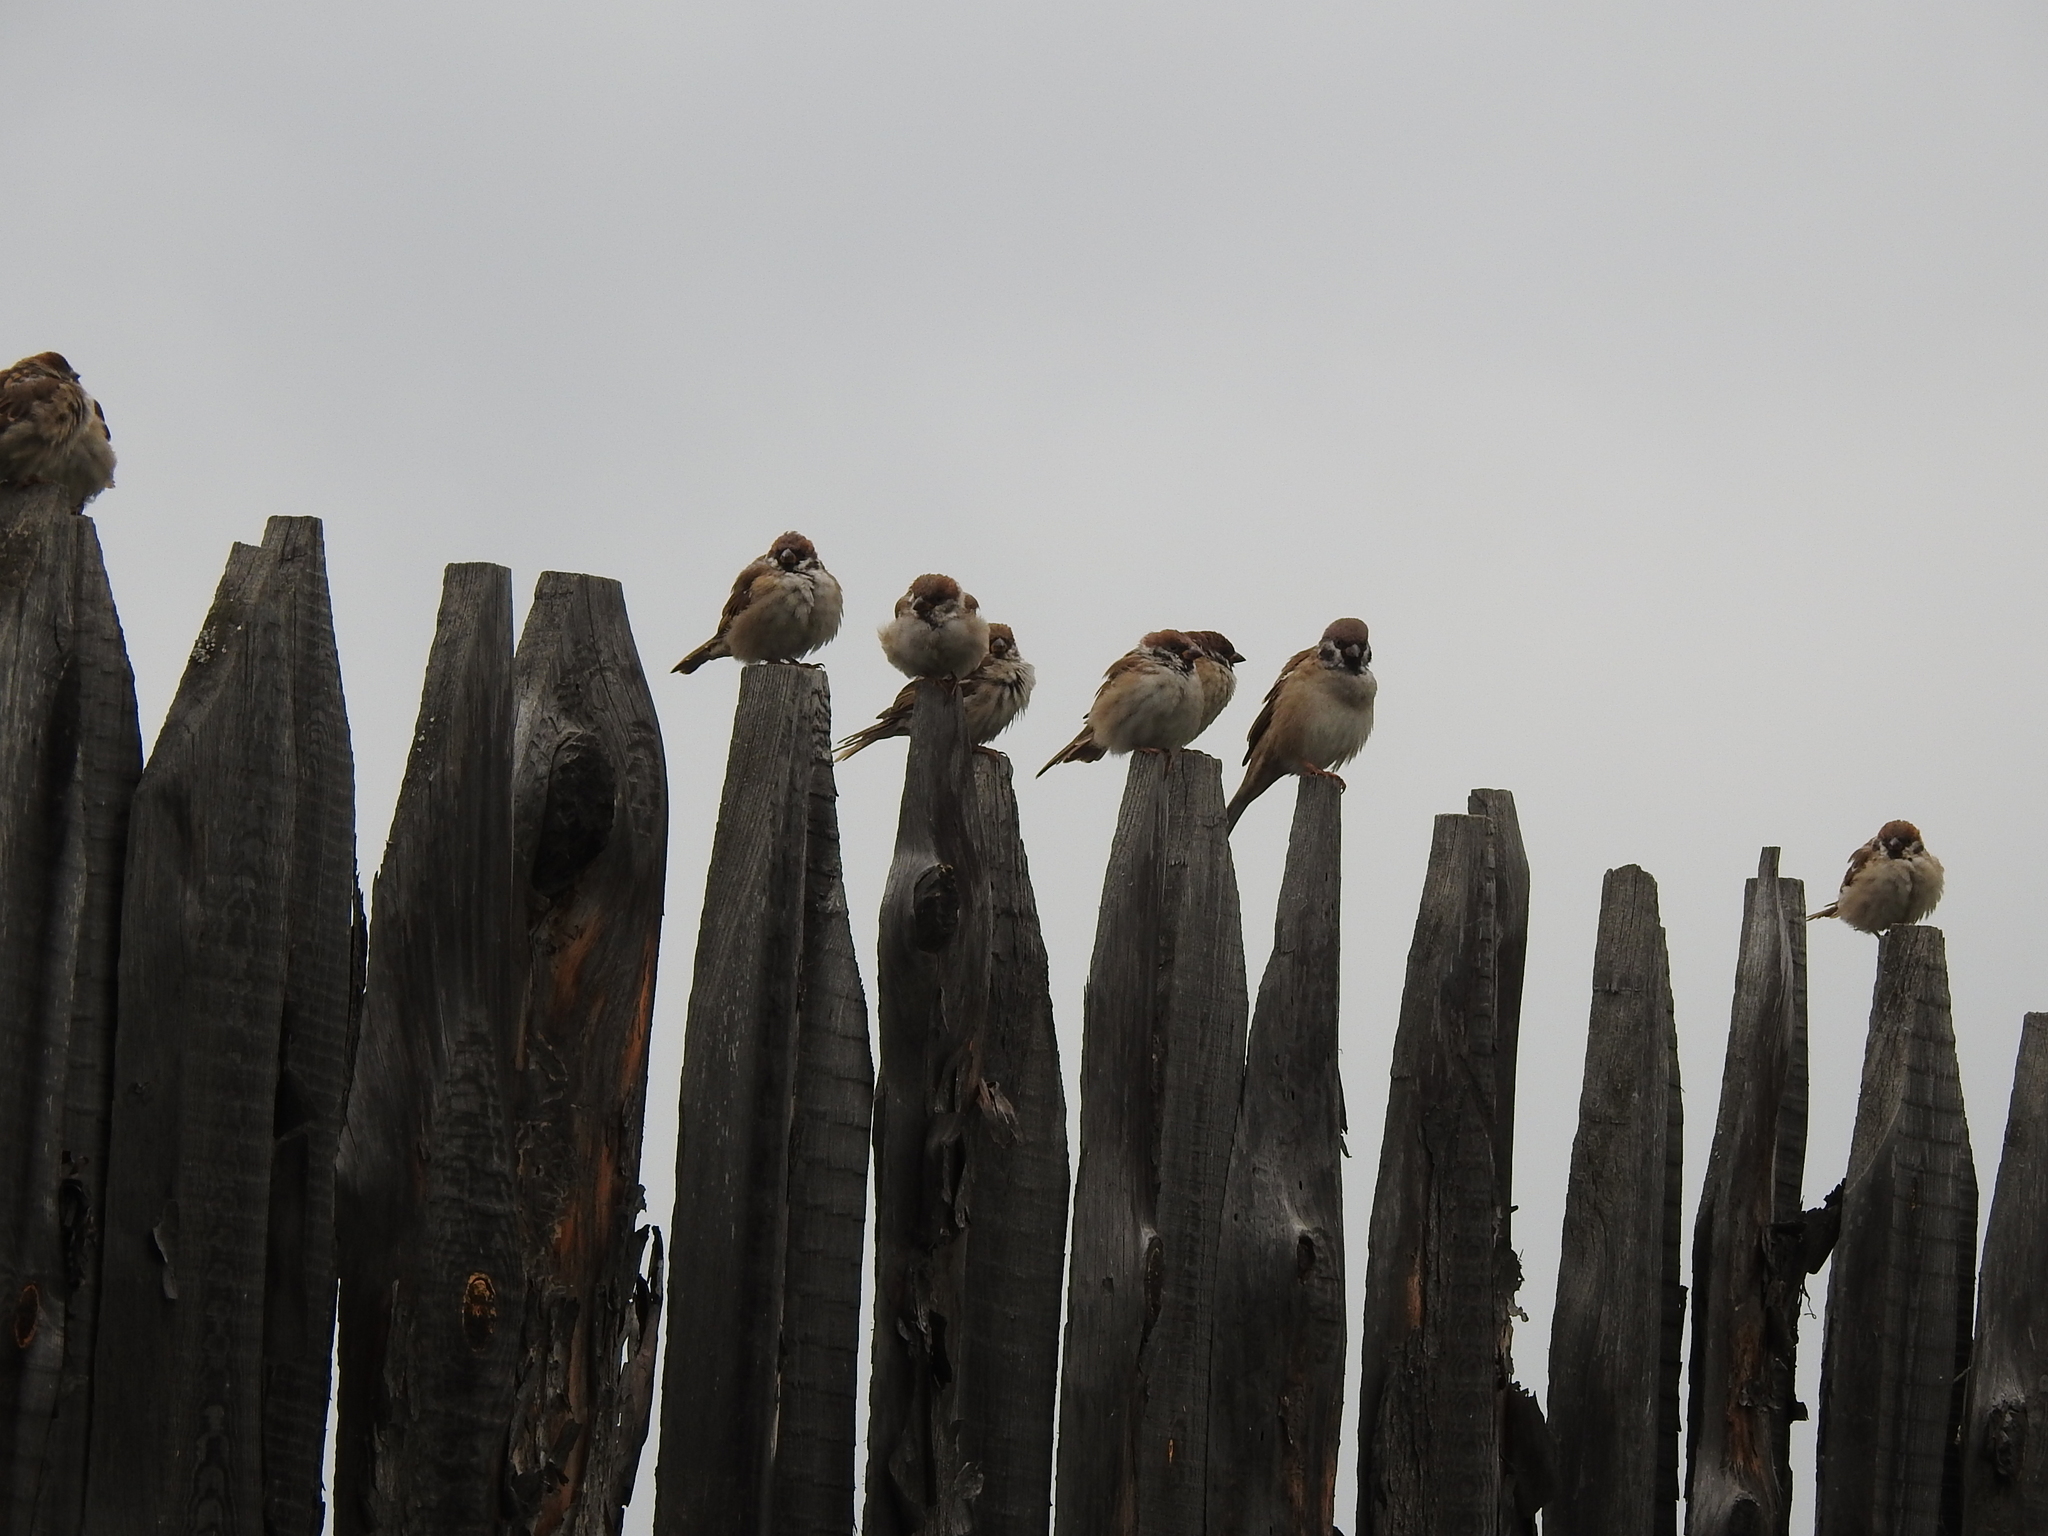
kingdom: Animalia
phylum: Chordata
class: Aves
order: Passeriformes
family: Passeridae
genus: Passer
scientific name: Passer montanus
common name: Eurasian tree sparrow
